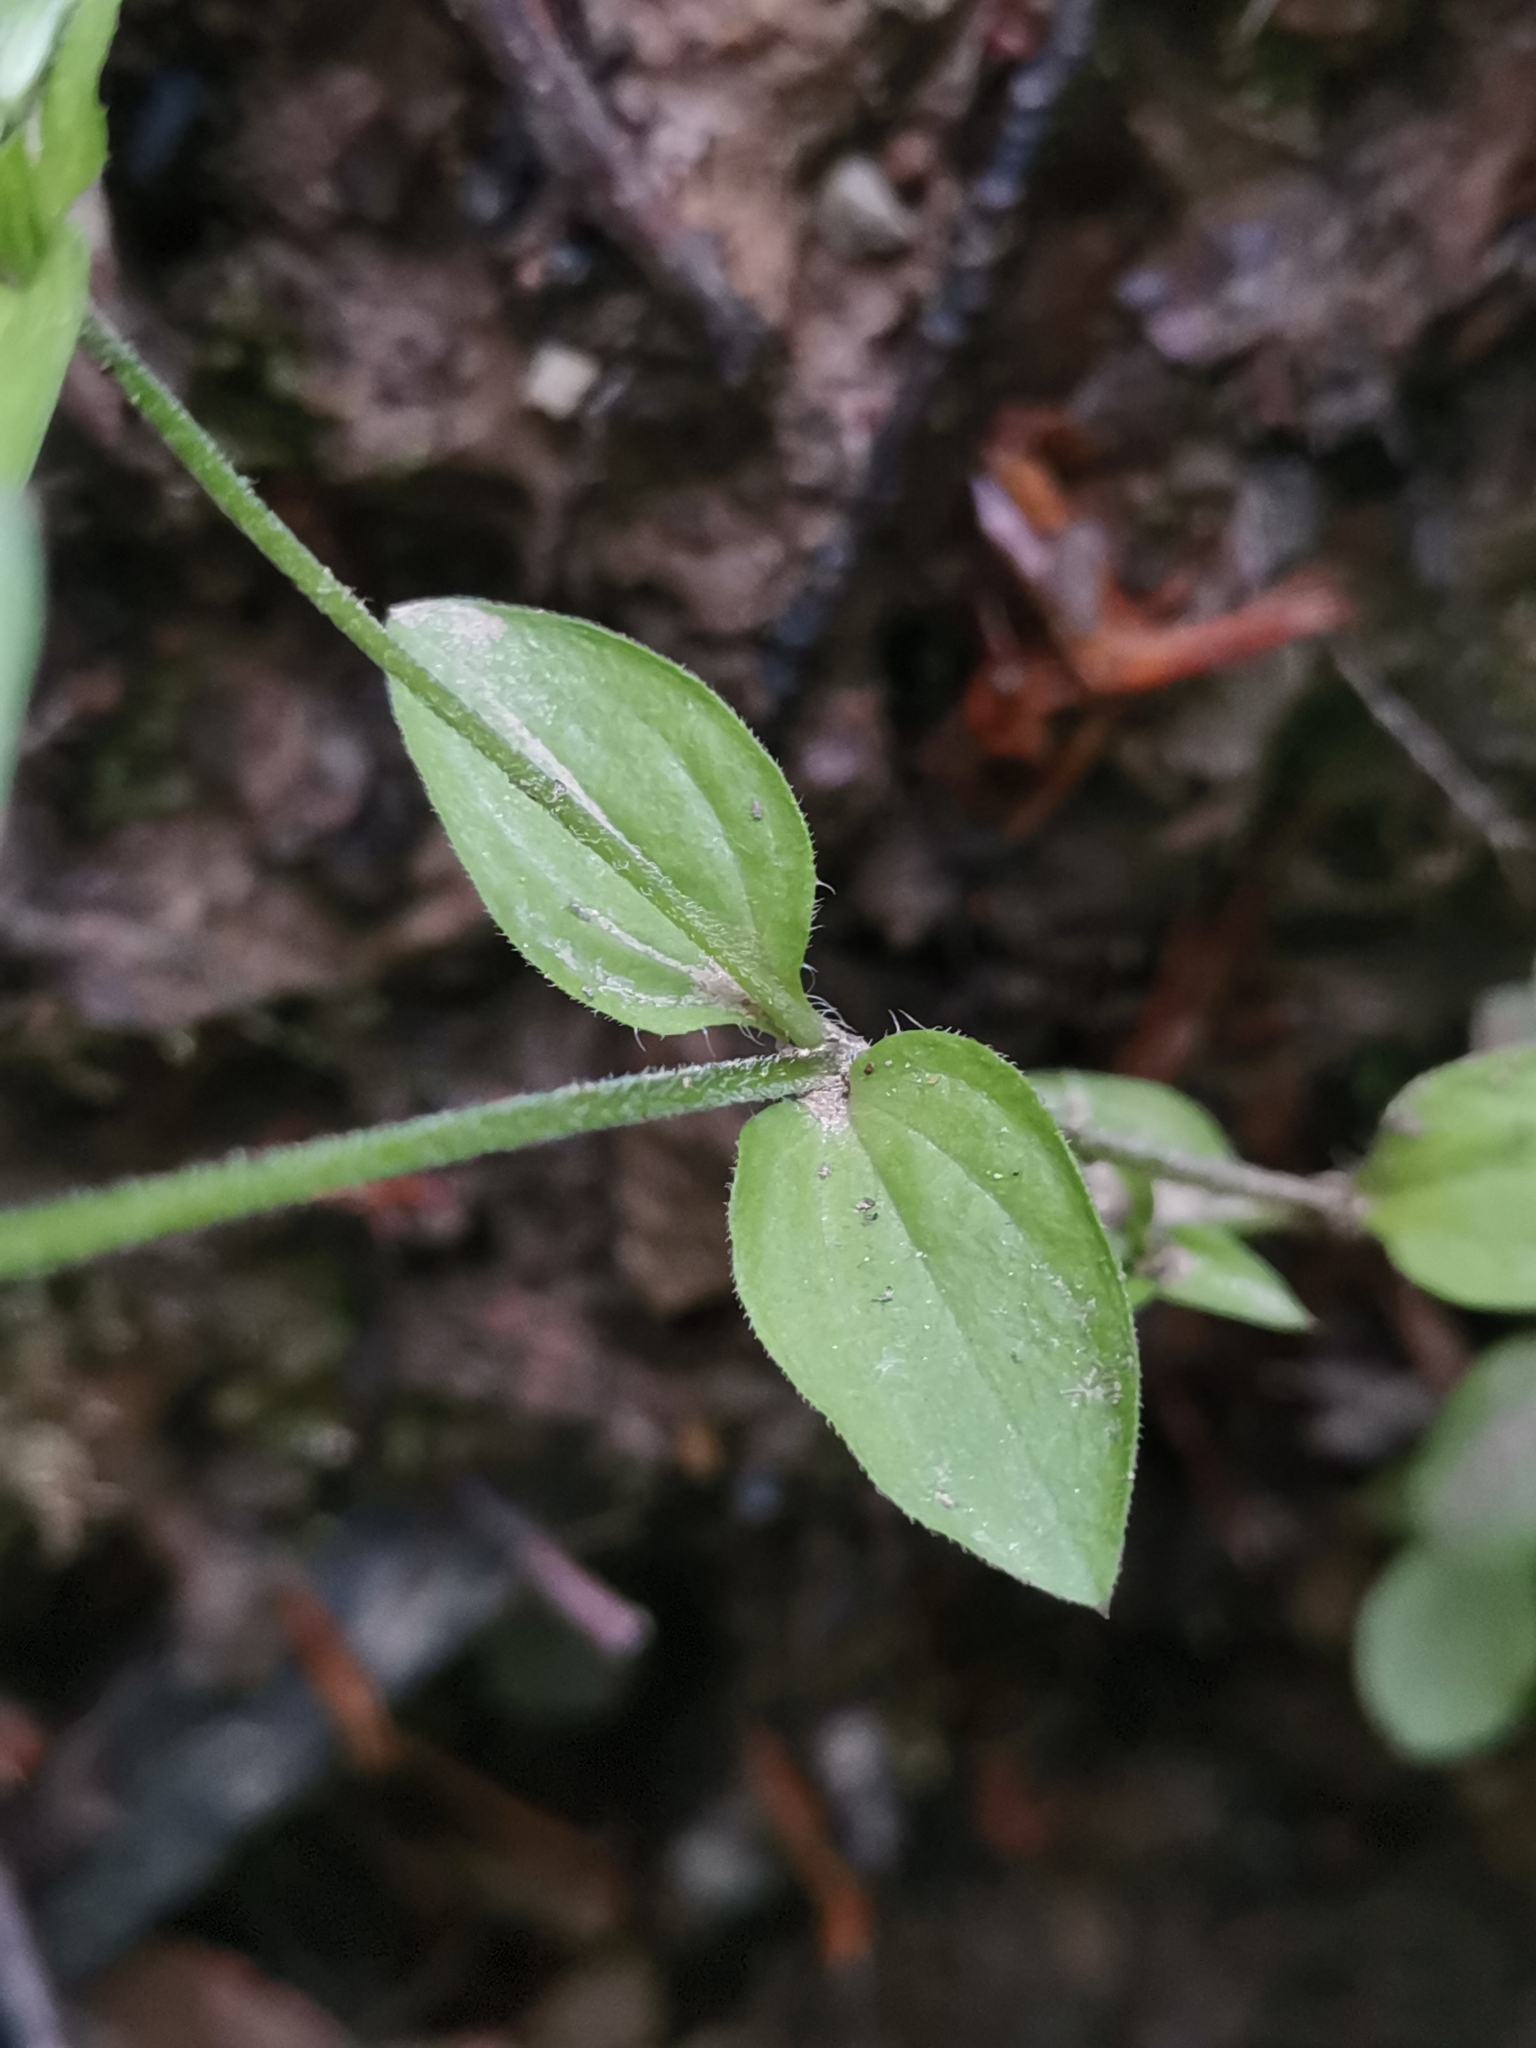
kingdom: Plantae
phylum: Tracheophyta
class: Magnoliopsida
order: Caryophyllales
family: Caryophyllaceae
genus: Moehringia
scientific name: Moehringia trinervia
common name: Three-nerved sandwort
